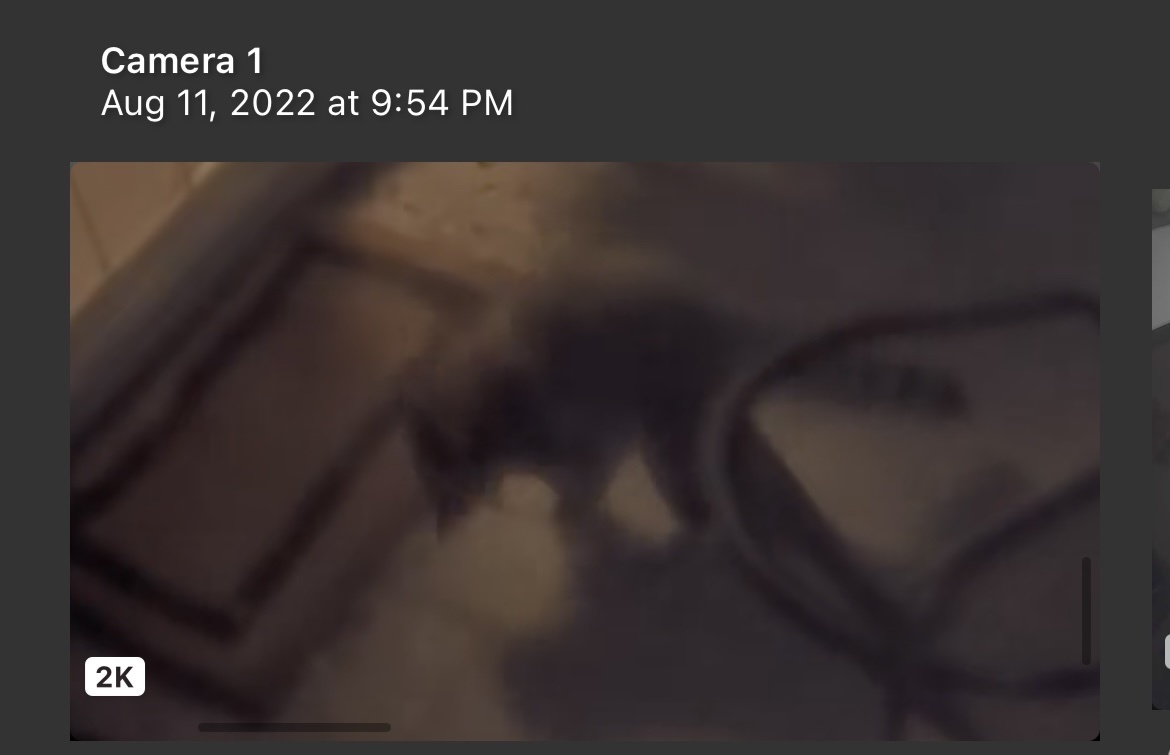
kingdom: Animalia
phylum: Chordata
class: Mammalia
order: Carnivora
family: Procyonidae
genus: Procyon
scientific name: Procyon lotor
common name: Raccoon
